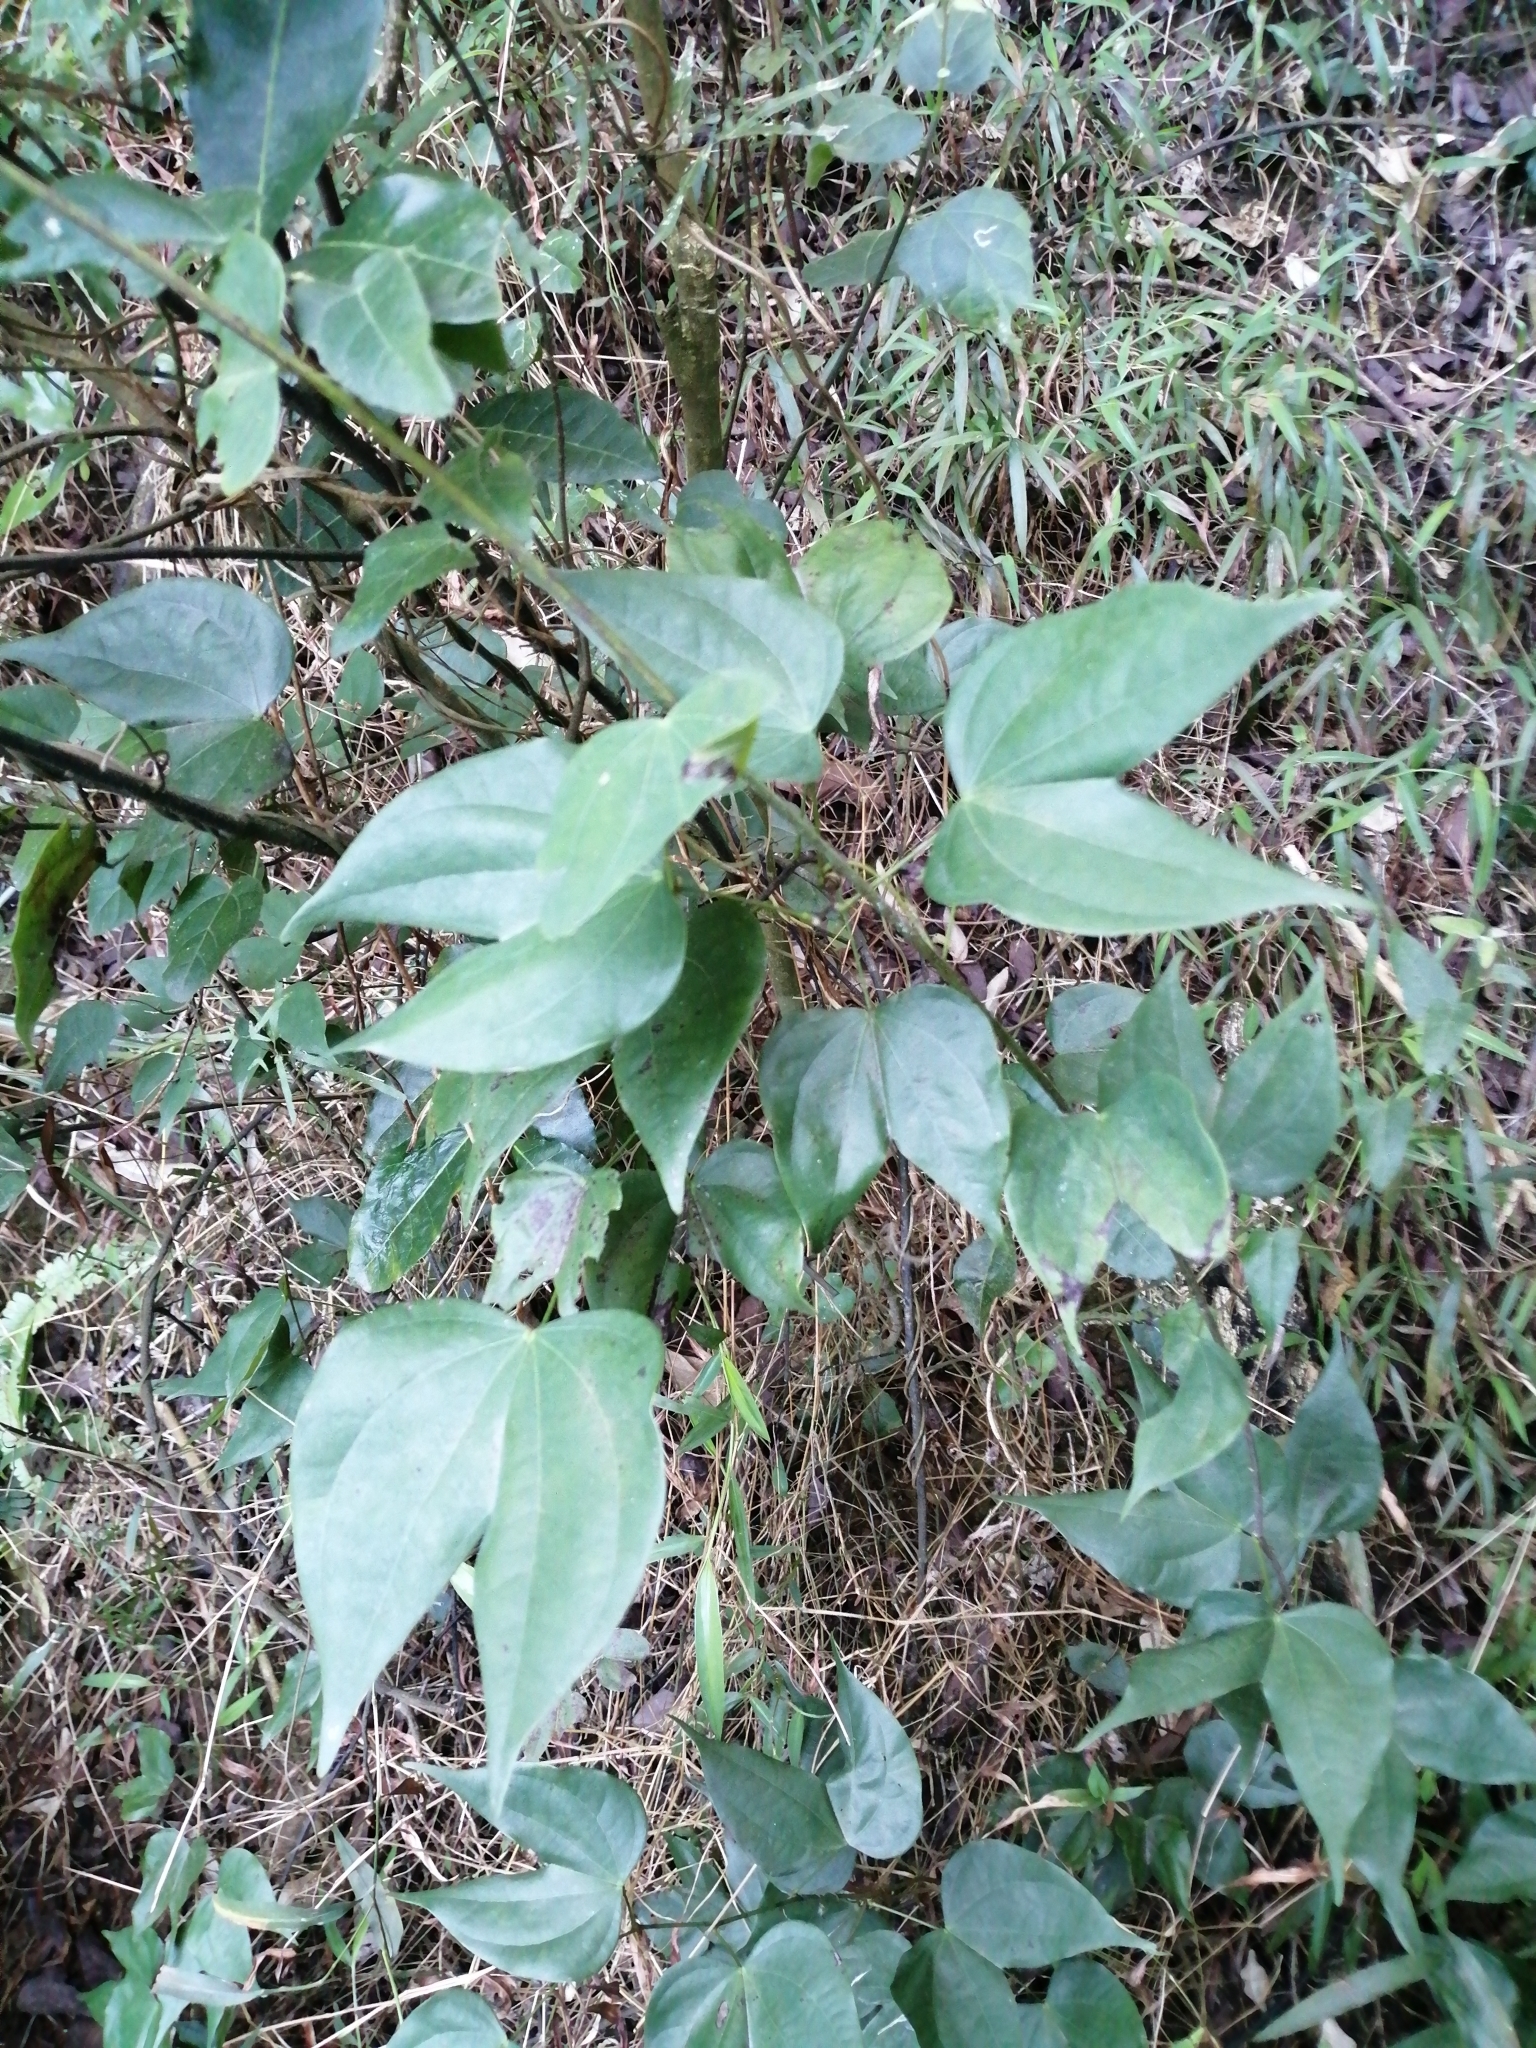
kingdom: Plantae
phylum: Tracheophyta
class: Magnoliopsida
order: Fabales
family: Fabaceae
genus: Phanera
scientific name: Phanera championii
